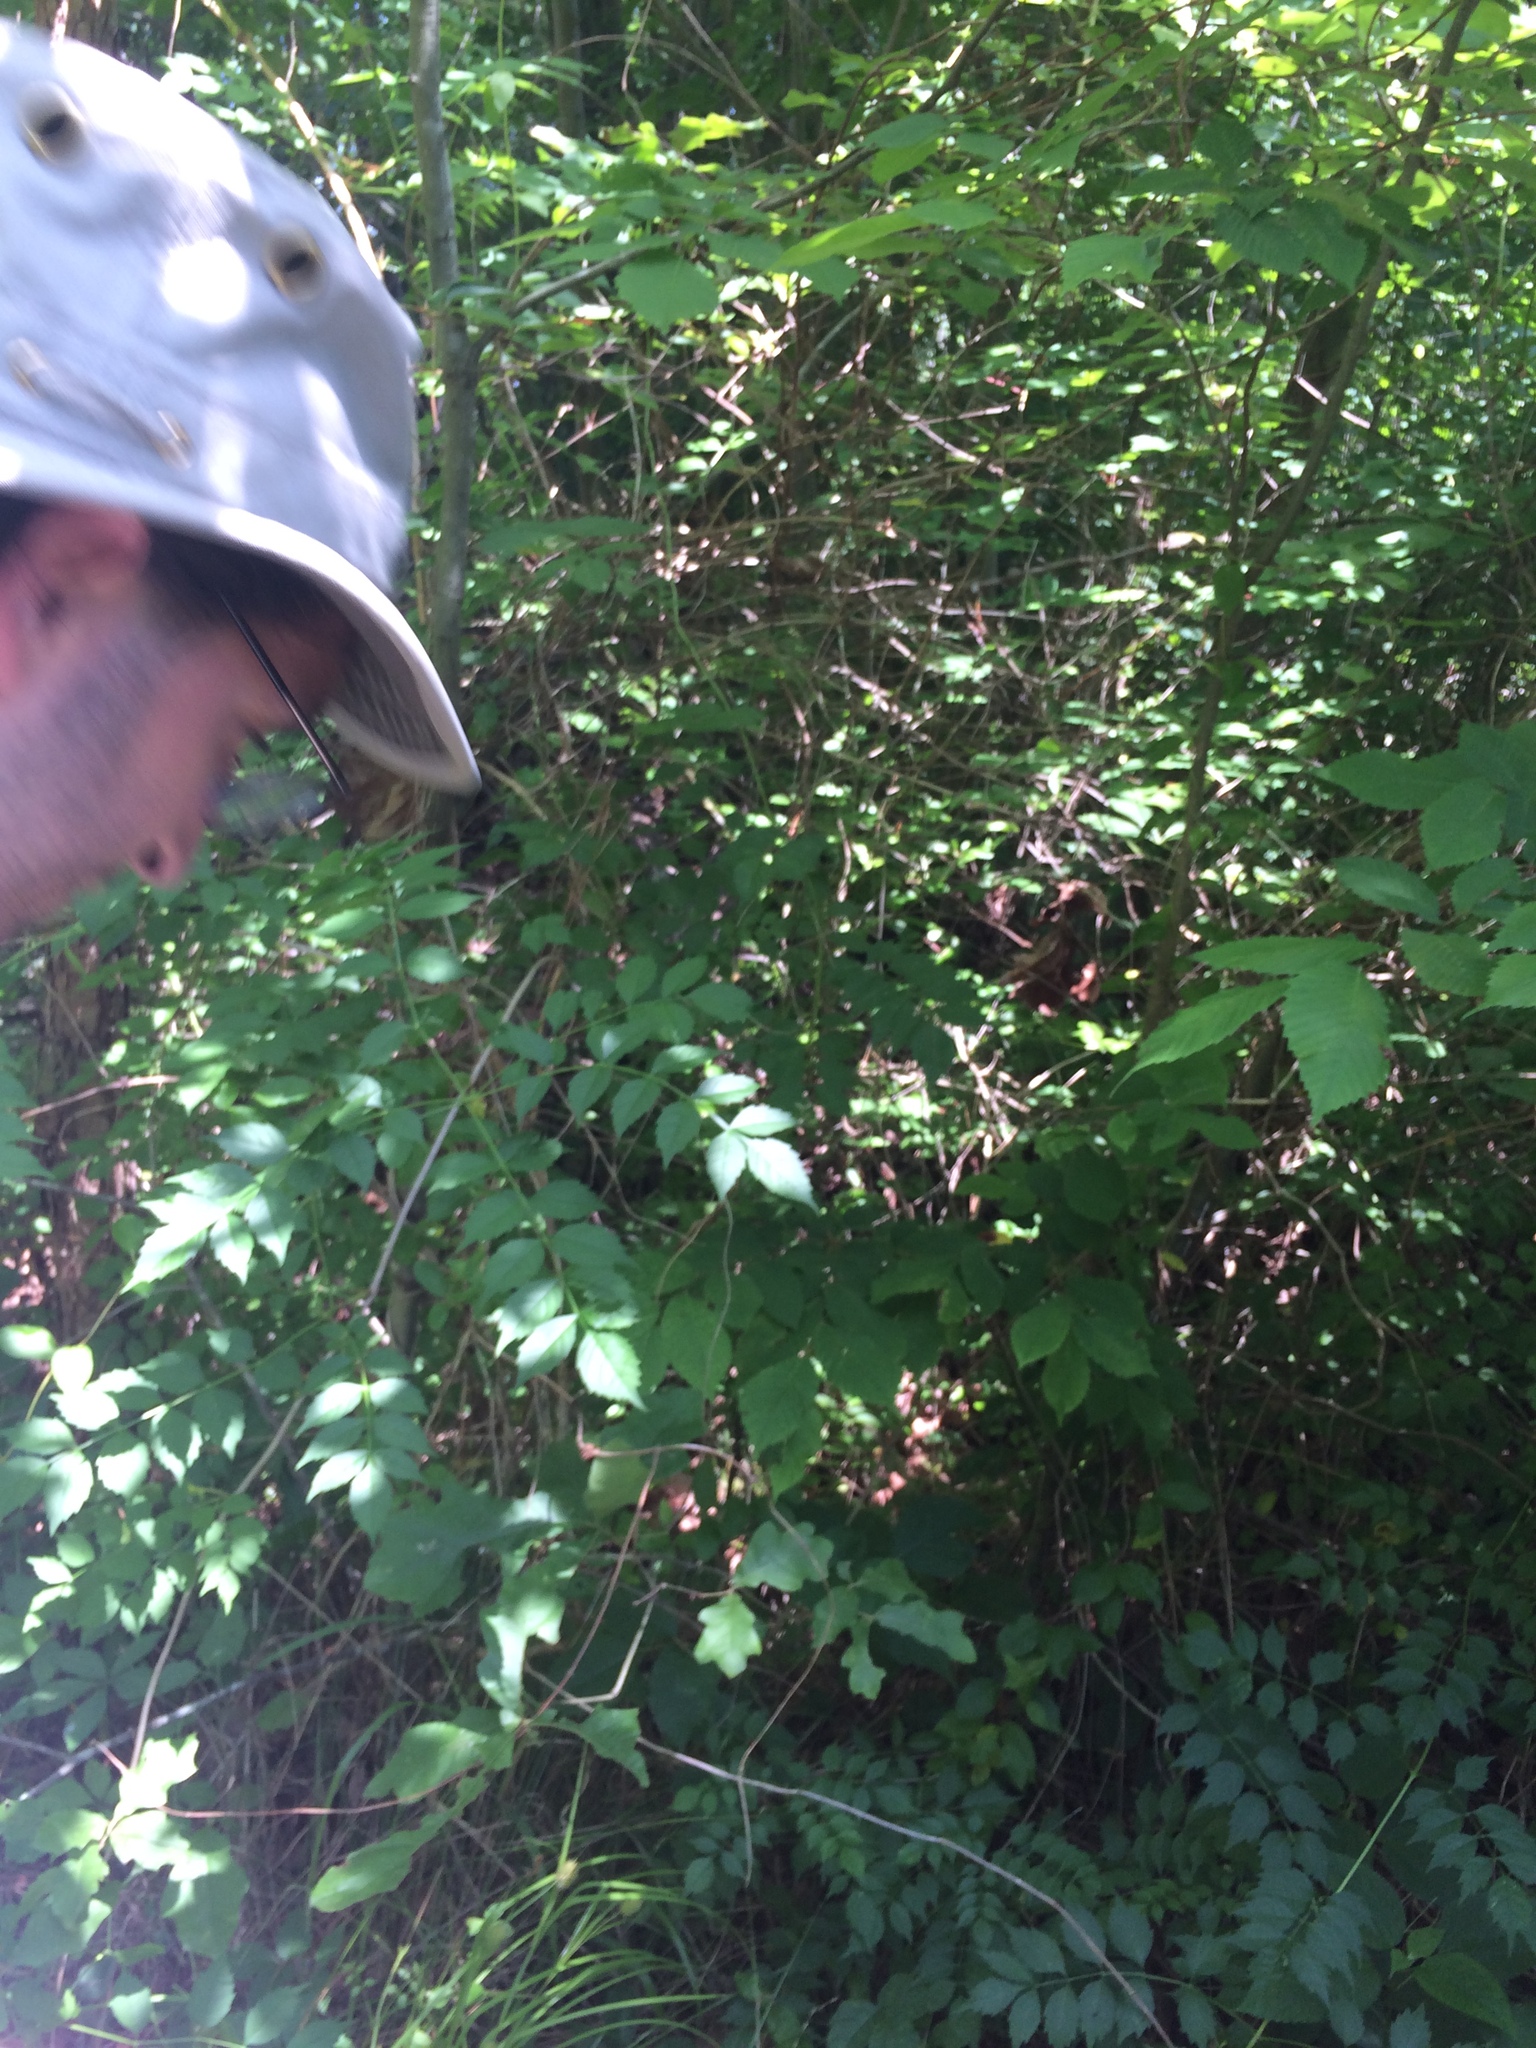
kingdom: Plantae
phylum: Tracheophyta
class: Liliopsida
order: Poales
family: Cyperaceae
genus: Carex
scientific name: Carex squarrosa
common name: Narrow-leaved cattail sedge
